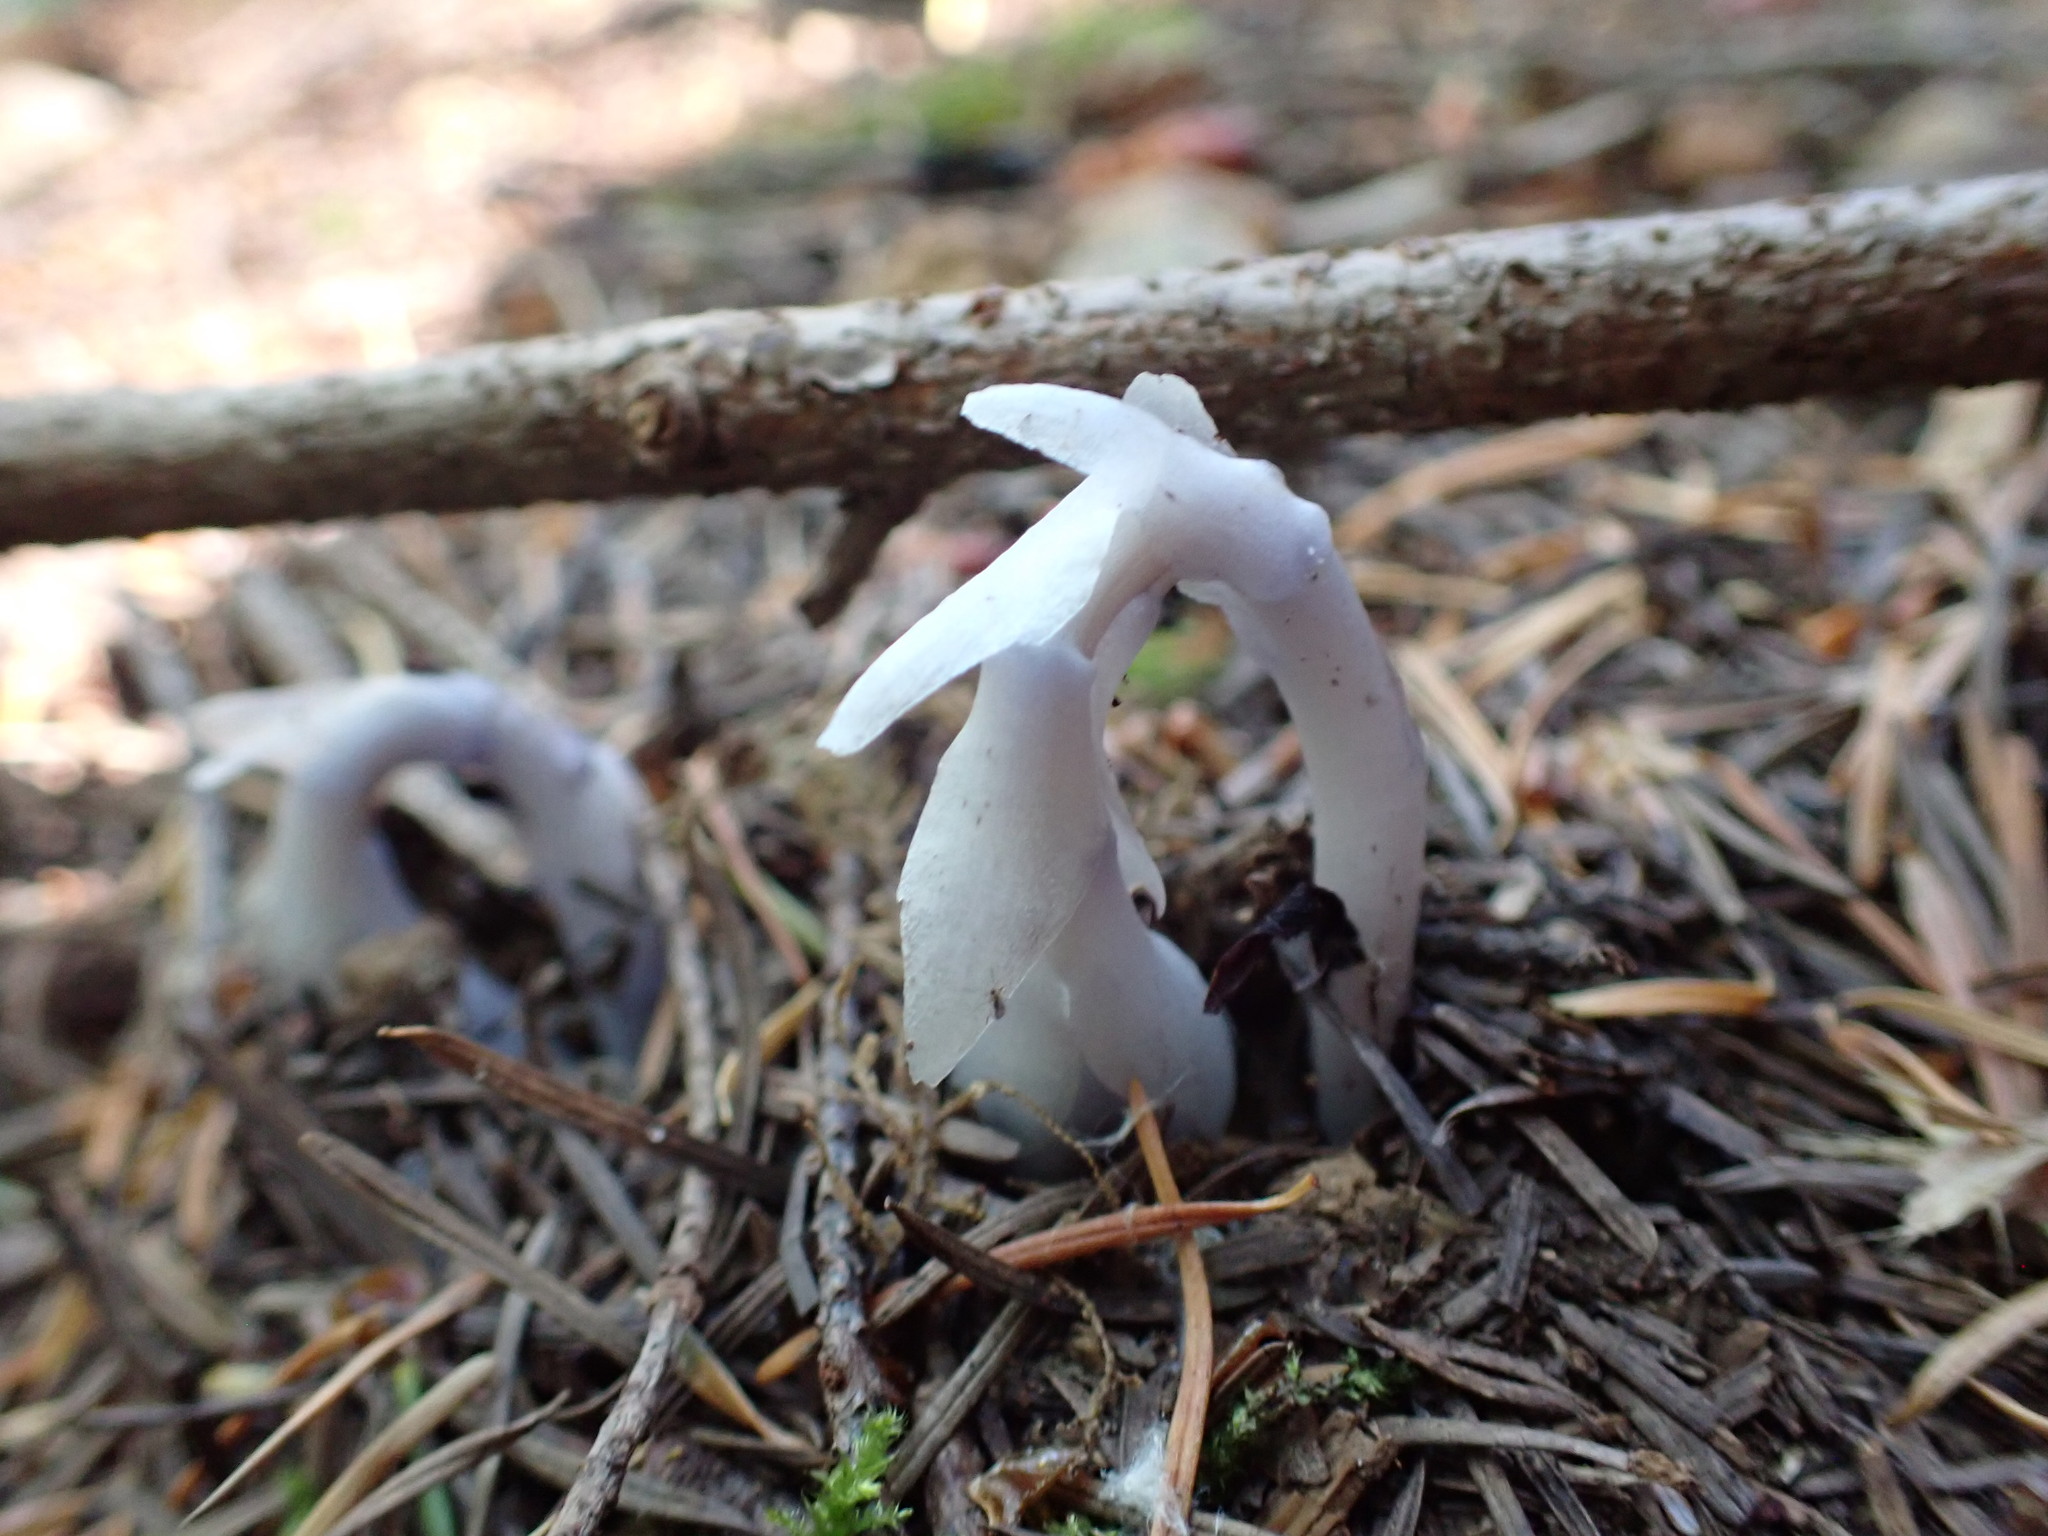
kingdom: Plantae
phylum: Tracheophyta
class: Magnoliopsida
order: Ericales
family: Ericaceae
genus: Monotropa
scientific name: Monotropa uniflora
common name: Convulsion root
